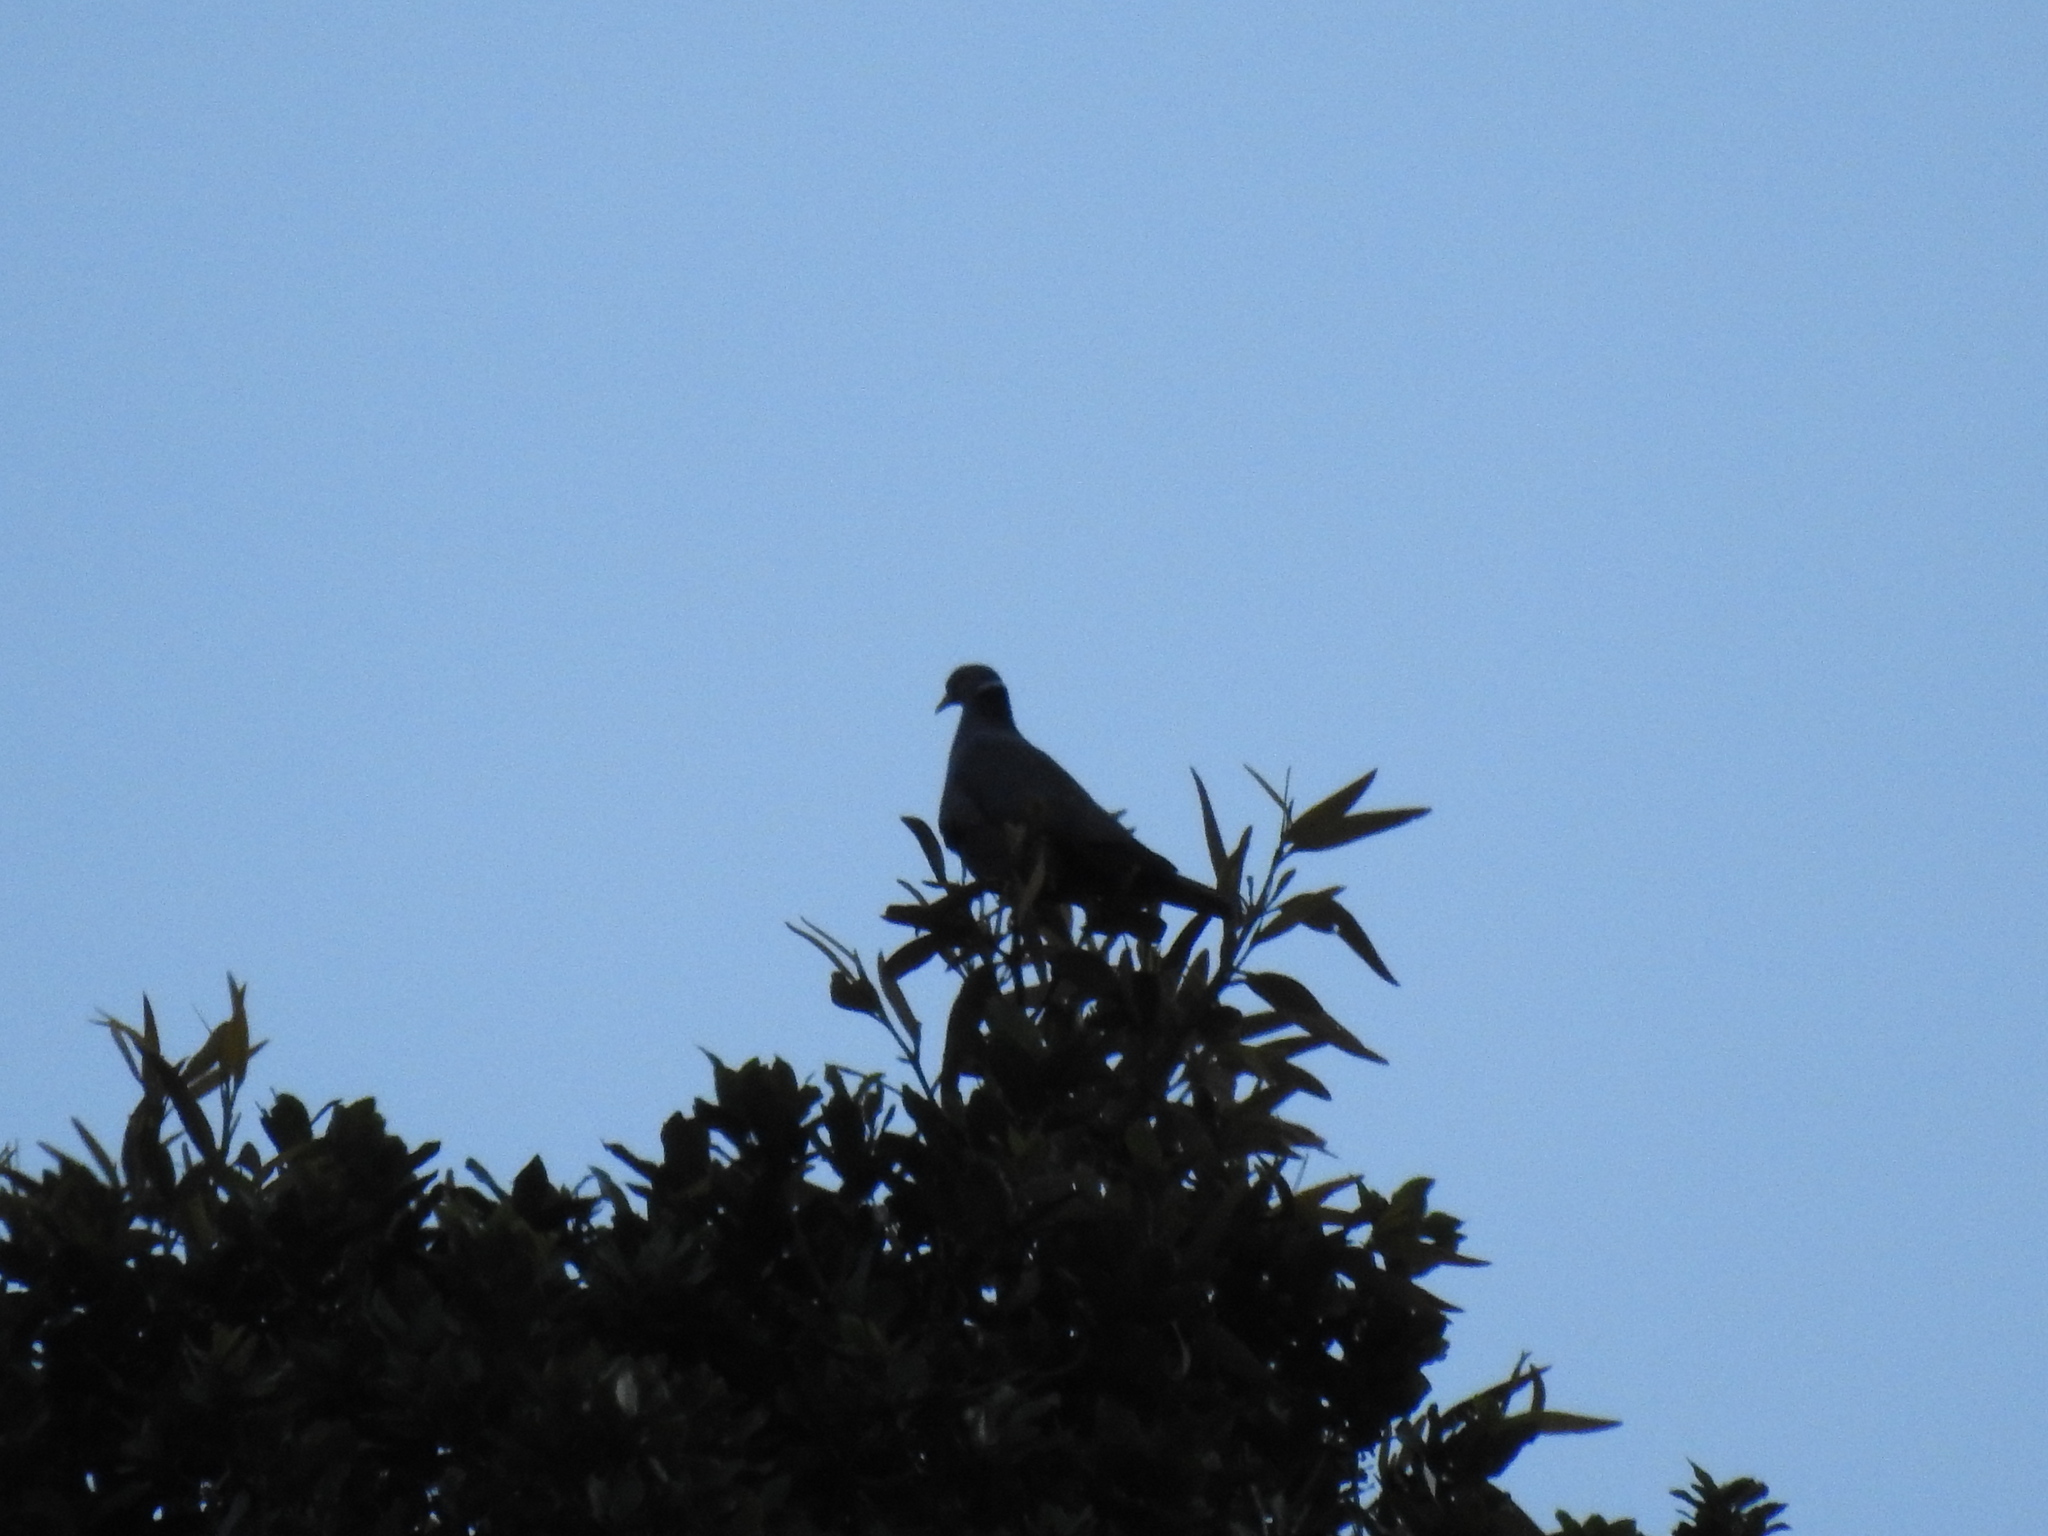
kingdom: Animalia
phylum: Chordata
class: Aves
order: Columbiformes
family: Columbidae
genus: Patagioenas
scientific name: Patagioenas fasciata
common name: Band-tailed pigeon
